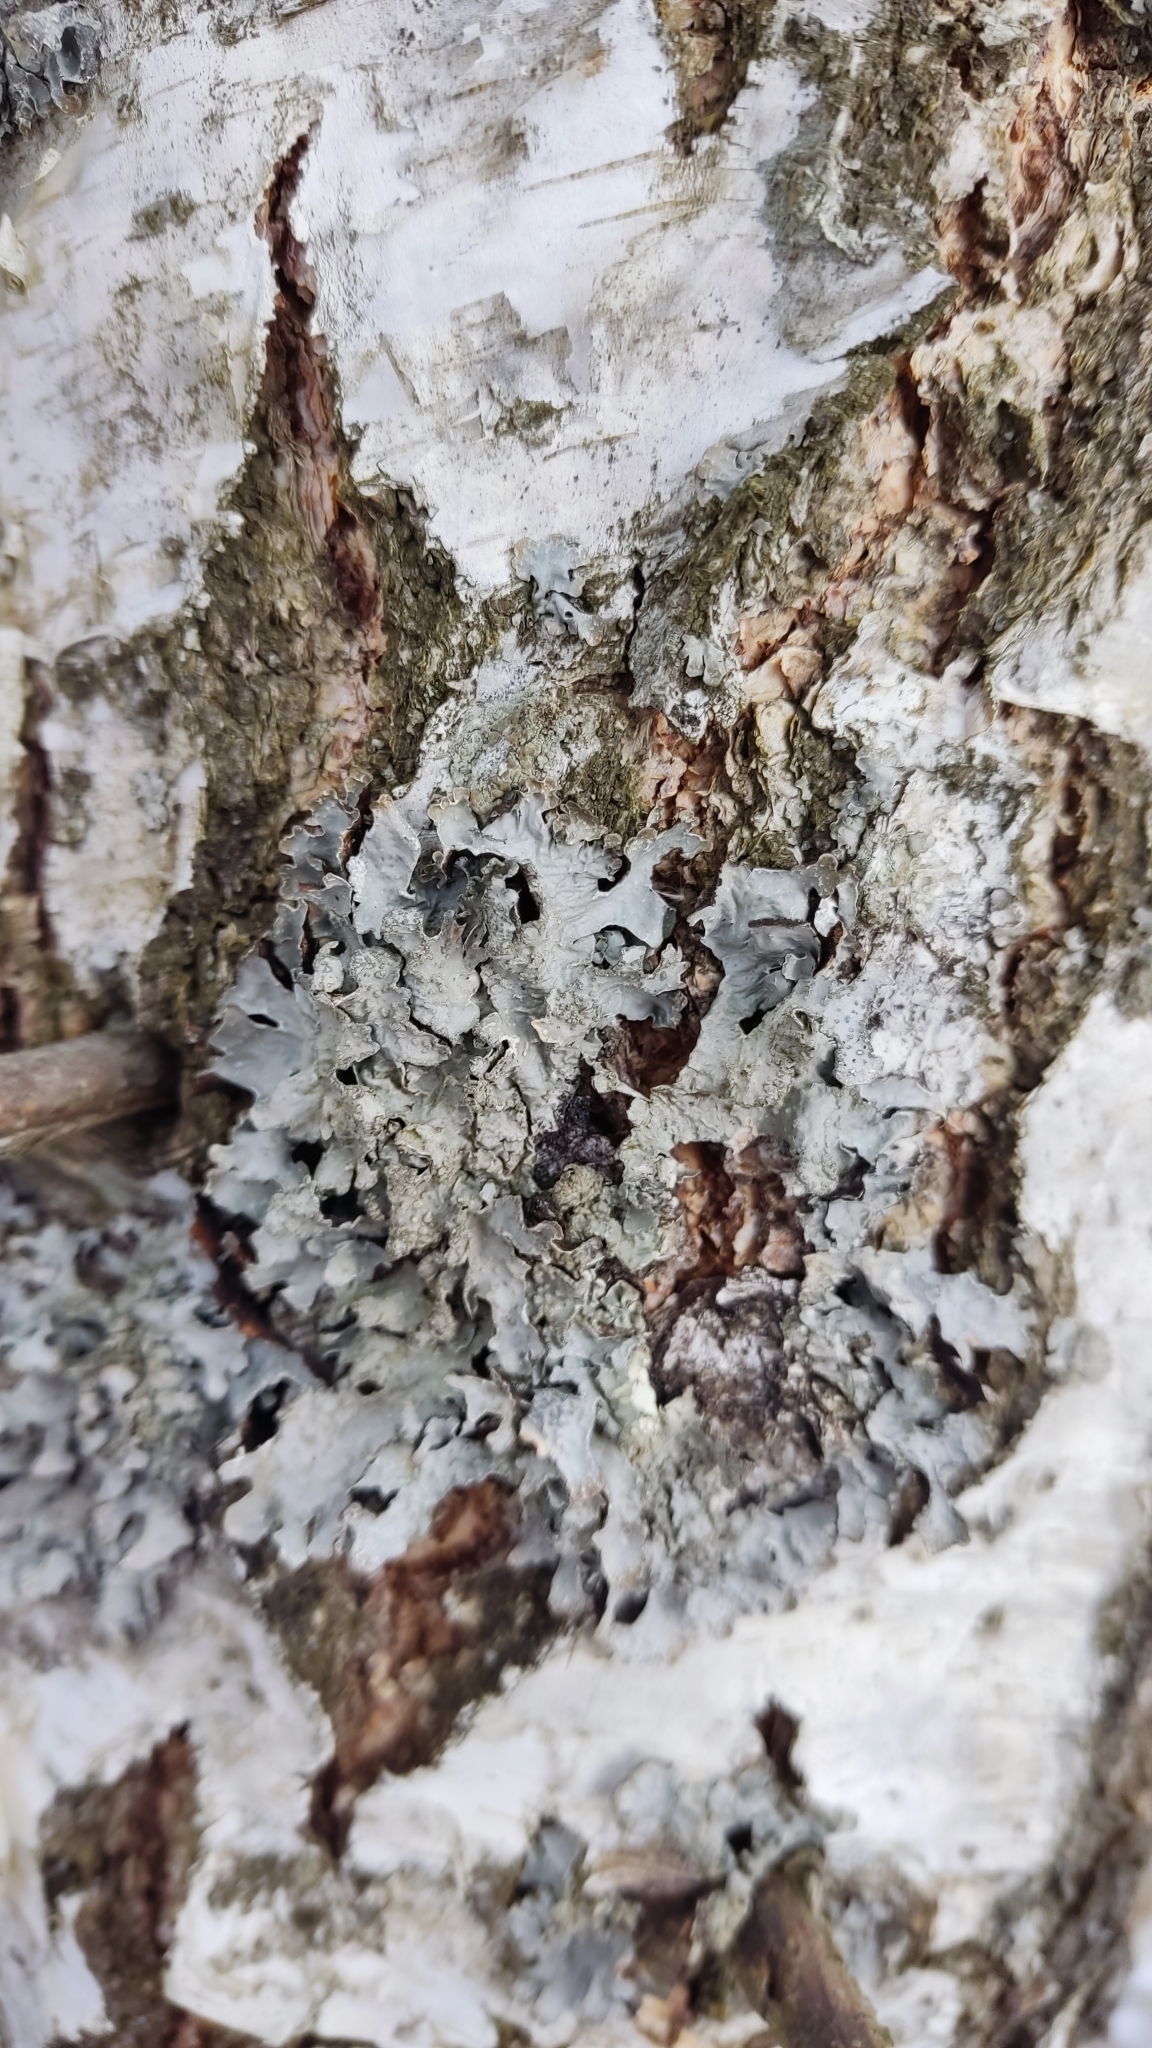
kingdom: Fungi
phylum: Ascomycota
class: Lecanoromycetes
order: Lecanorales
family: Parmeliaceae
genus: Parmelia
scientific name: Parmelia sulcata
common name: Netted shield lichen
